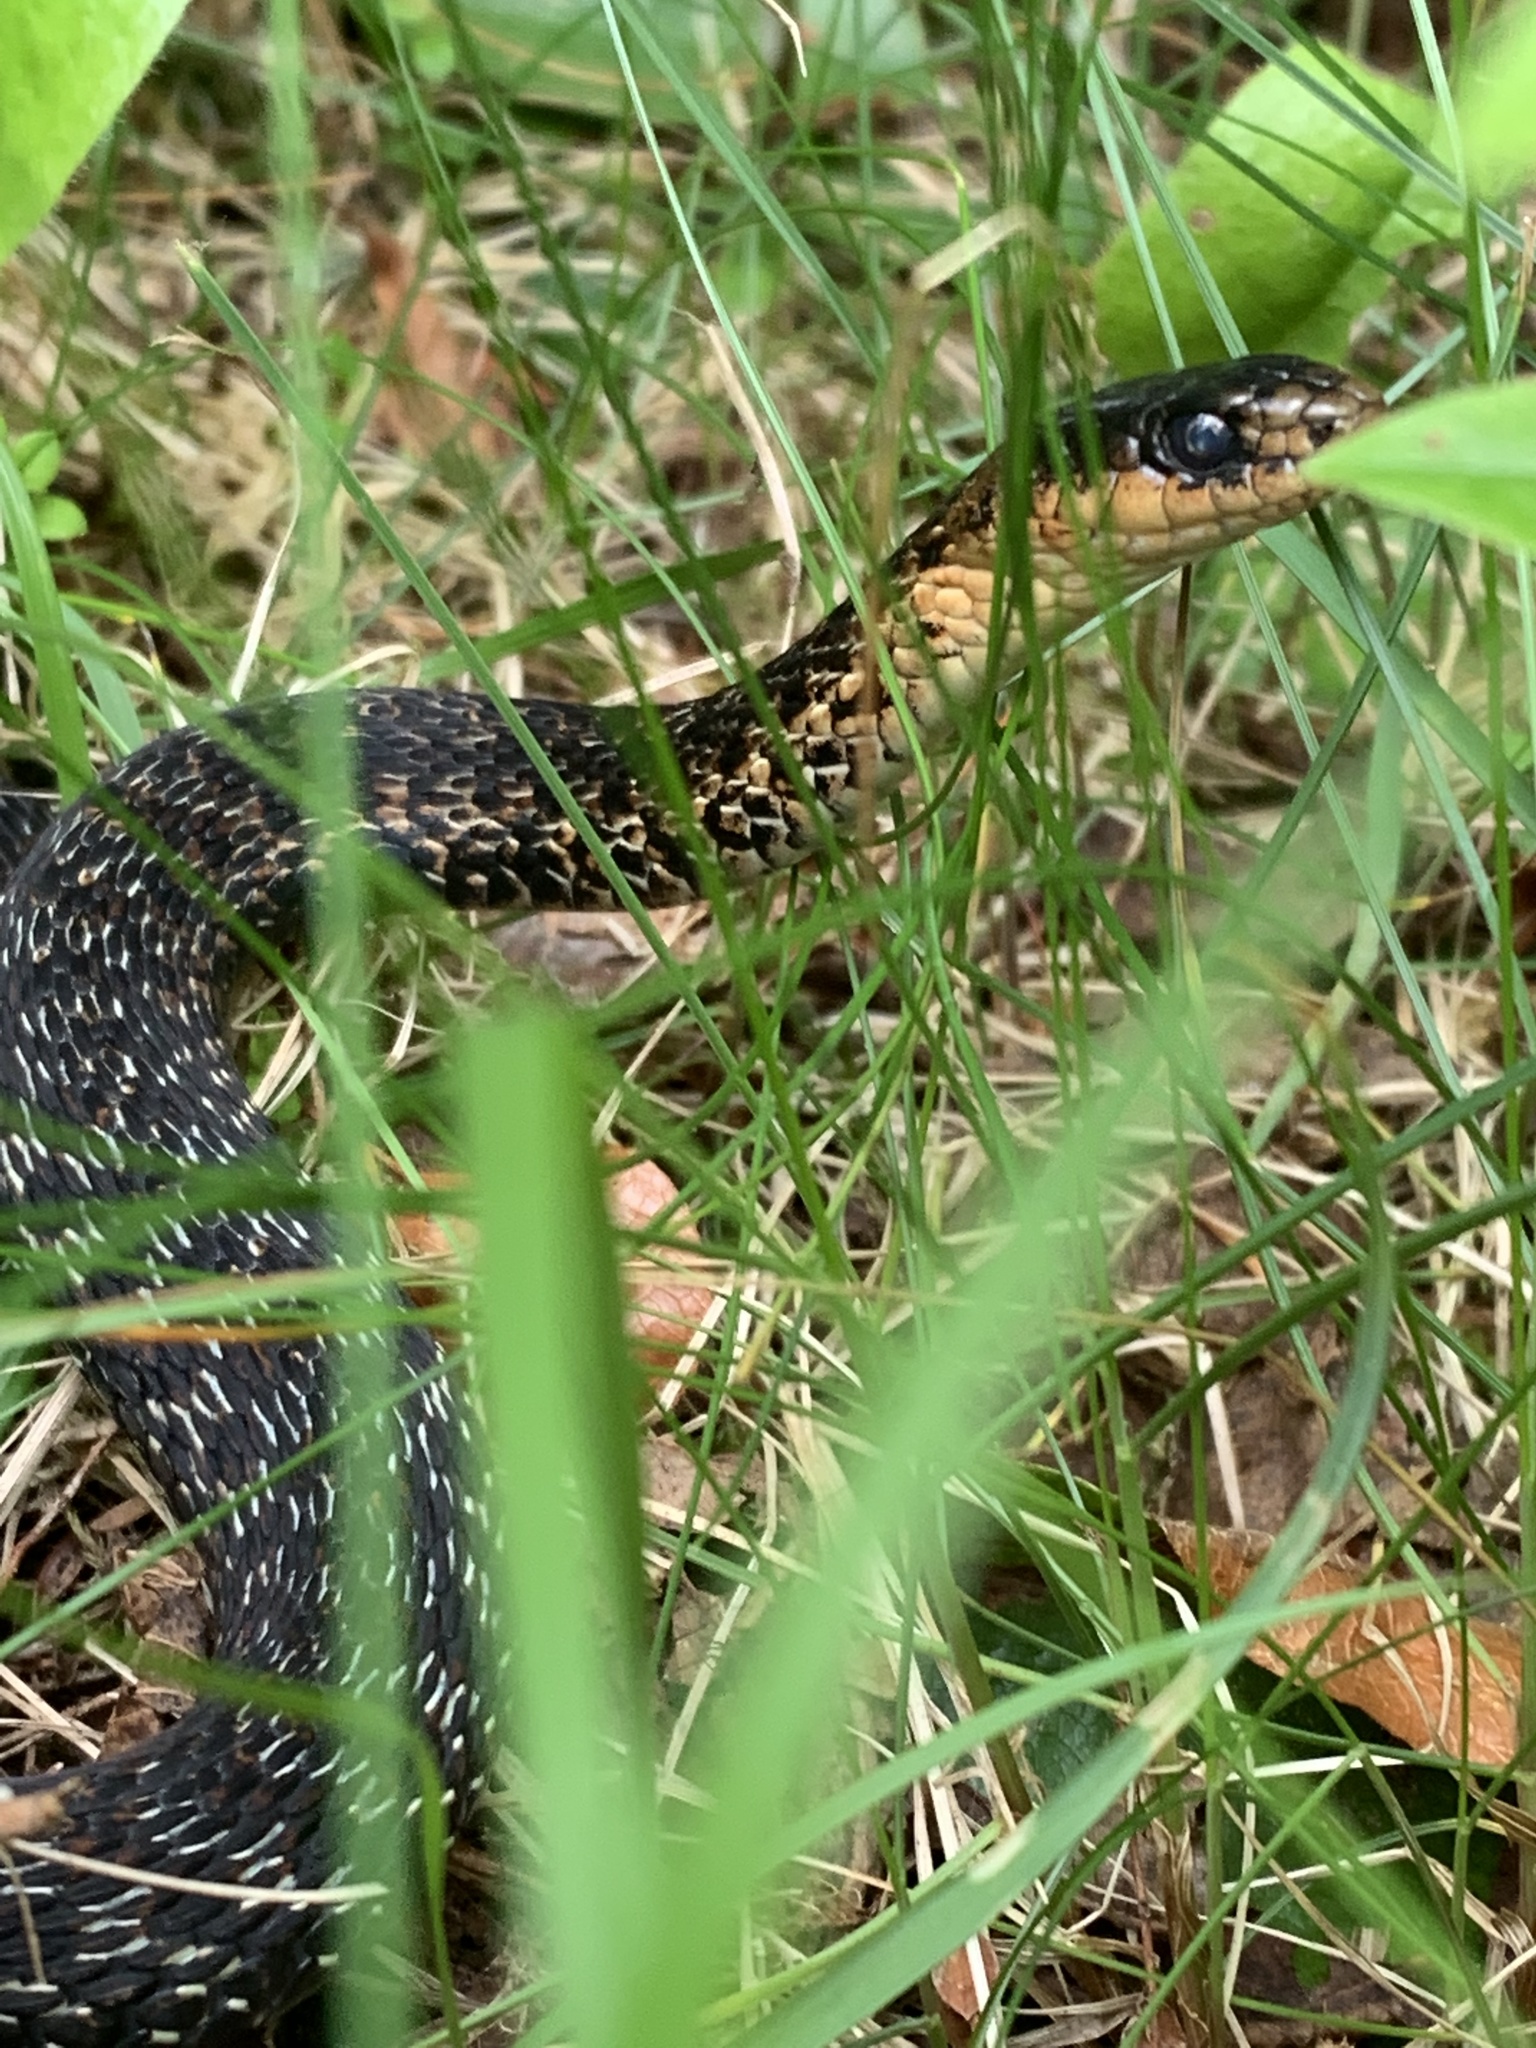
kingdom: Animalia
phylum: Chordata
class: Squamata
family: Colubridae
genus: Thamnophis
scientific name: Thamnophis sirtalis
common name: Common garter snake
